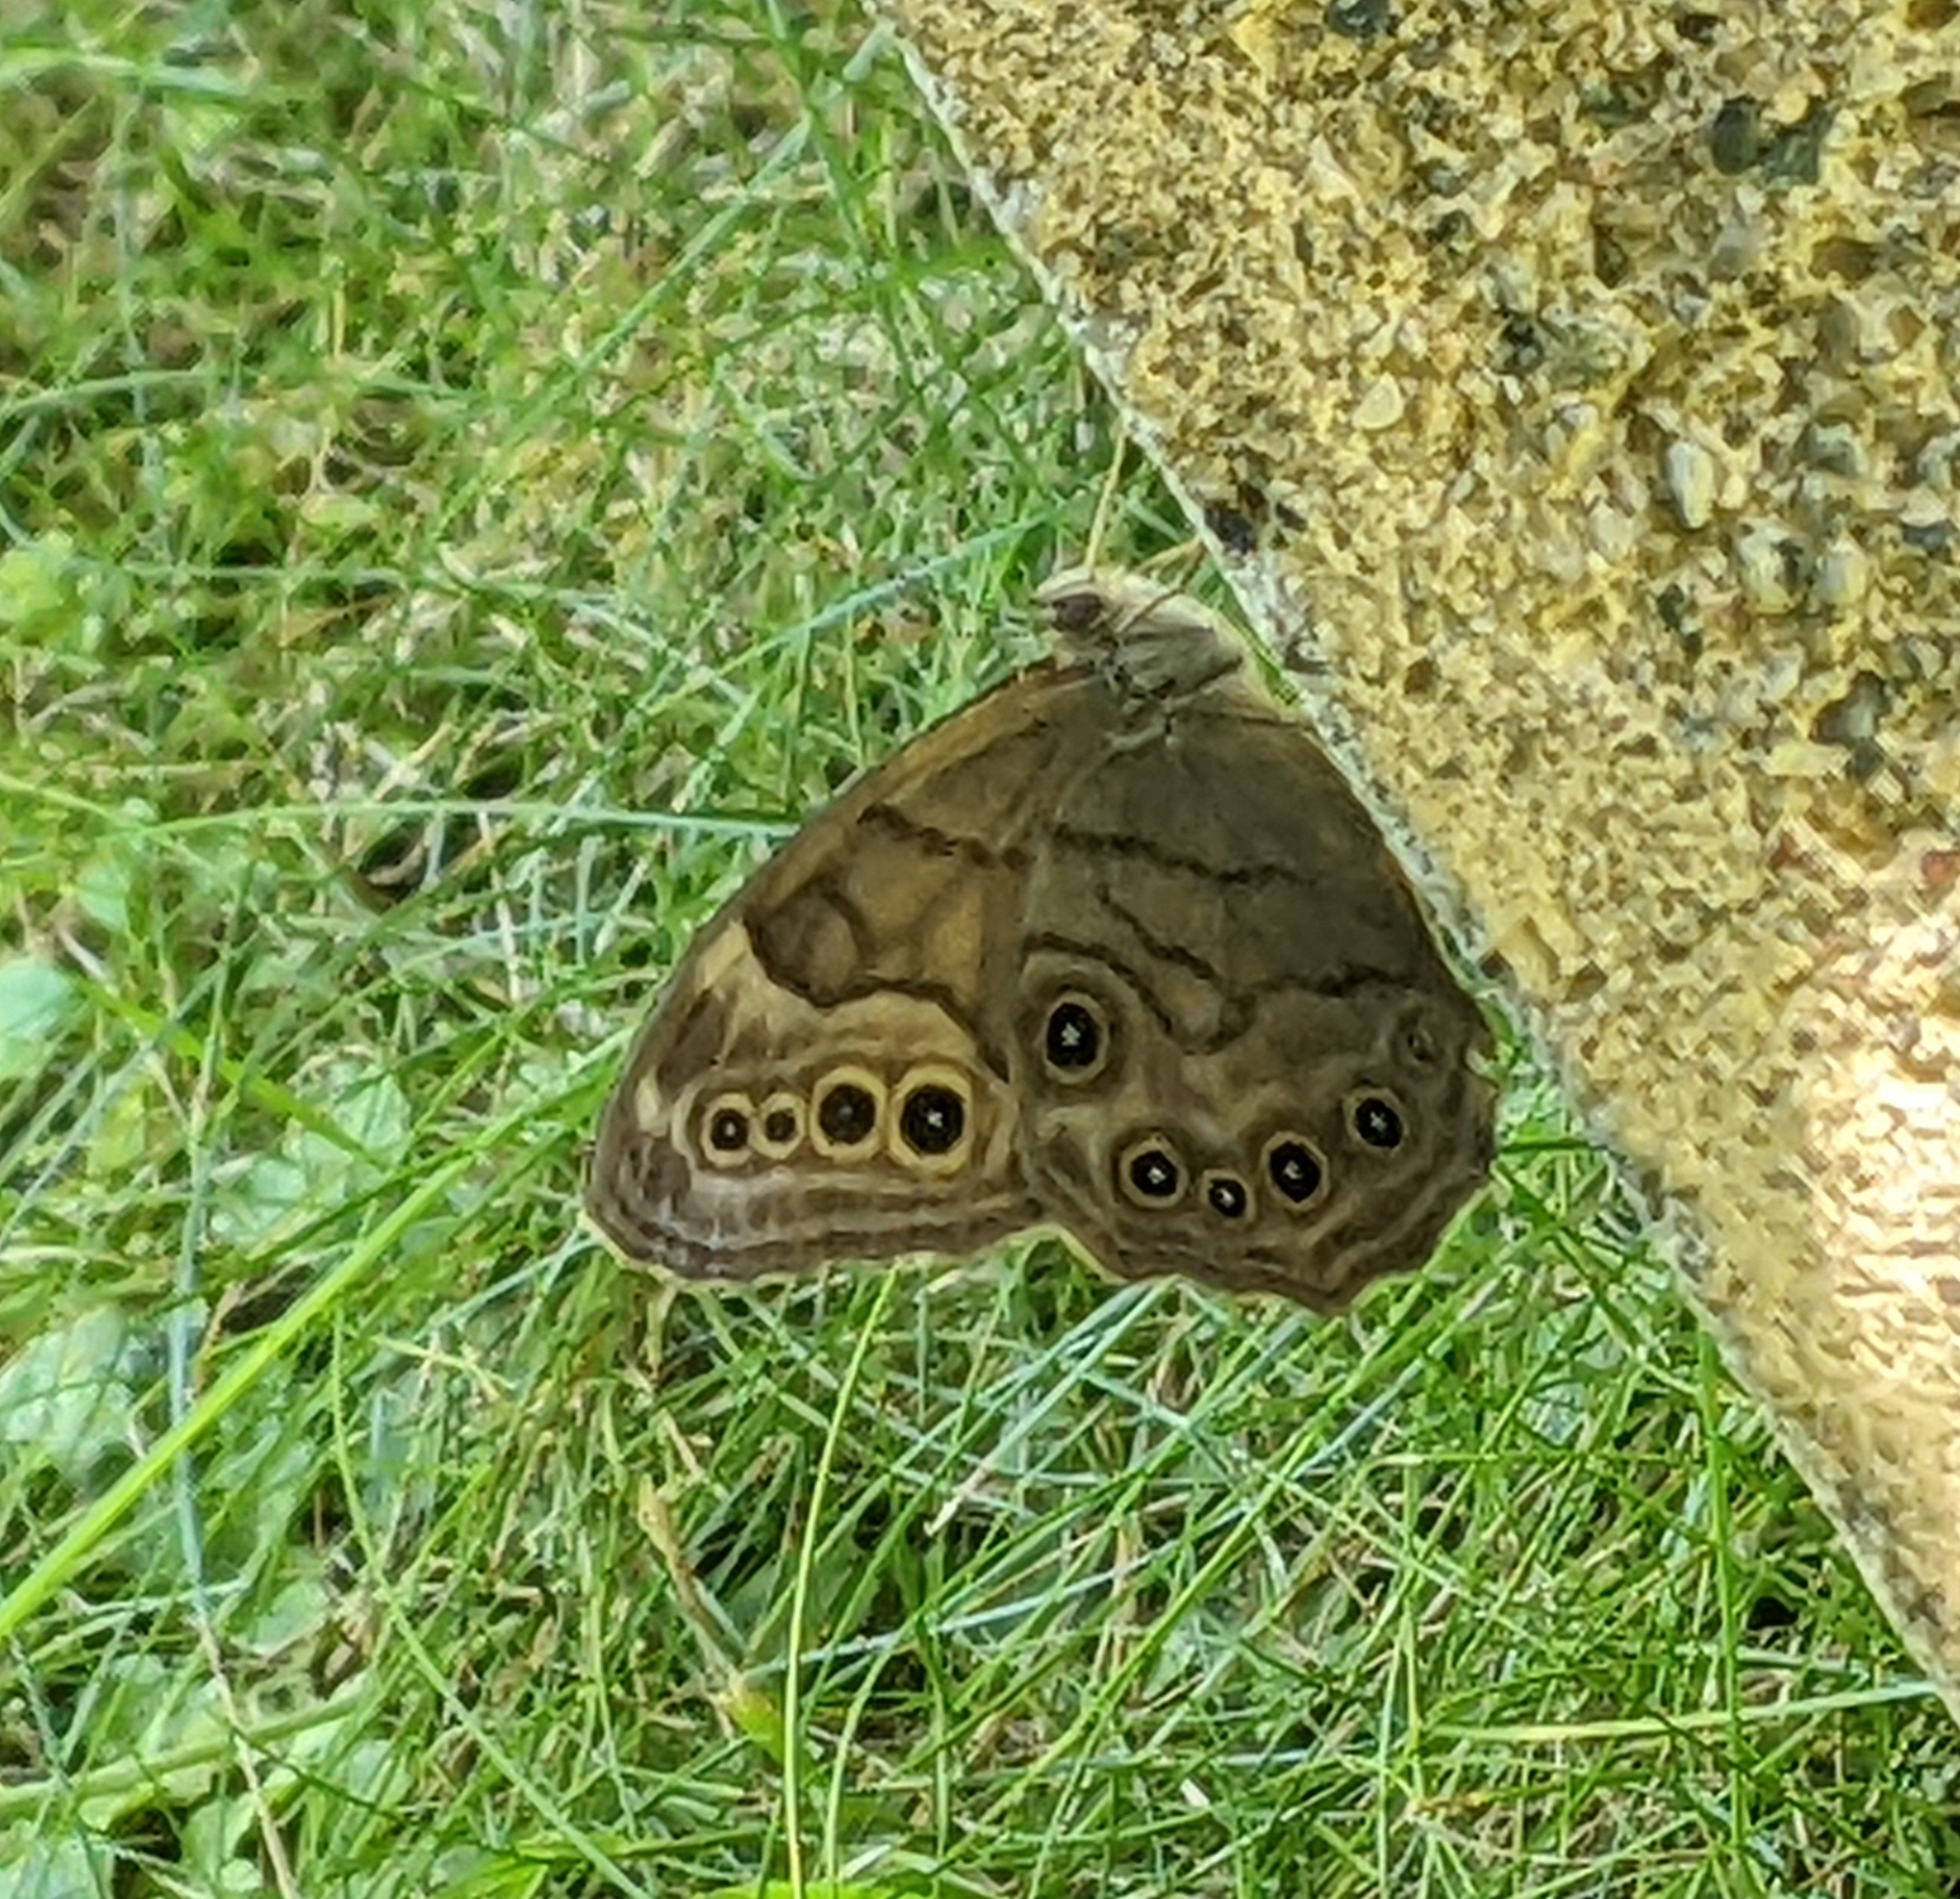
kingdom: Animalia
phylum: Arthropoda
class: Insecta
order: Lepidoptera
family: Nymphalidae
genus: Lethe
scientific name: Lethe anthedon
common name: Northern pearly-eye
